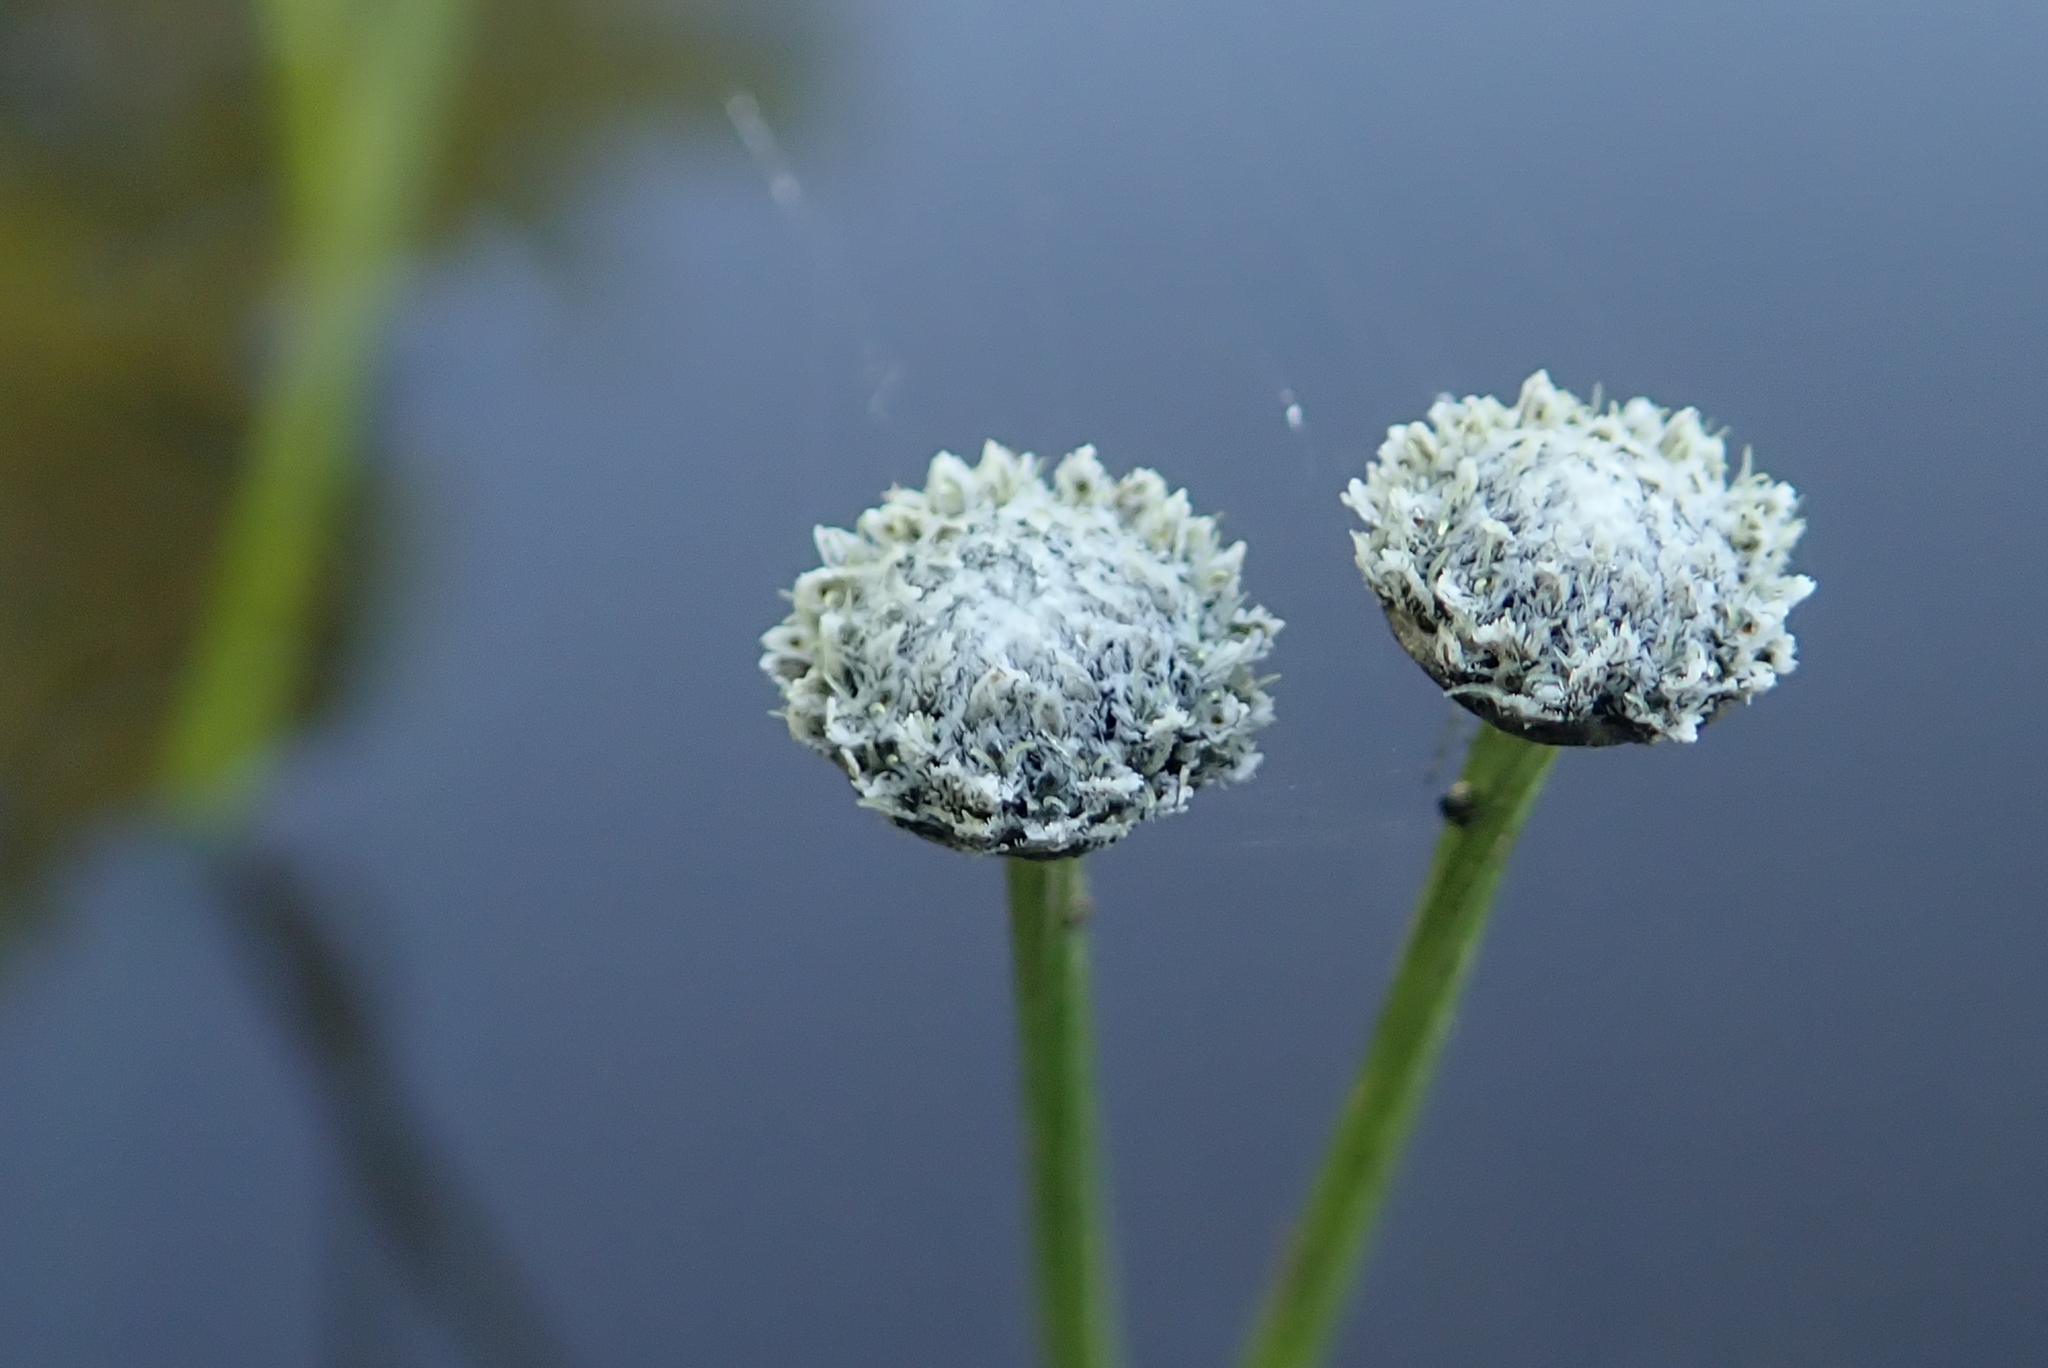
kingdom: Plantae
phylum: Tracheophyta
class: Liliopsida
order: Poales
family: Eriocaulaceae
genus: Eriocaulon
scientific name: Eriocaulon aquaticum
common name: Pipewort
